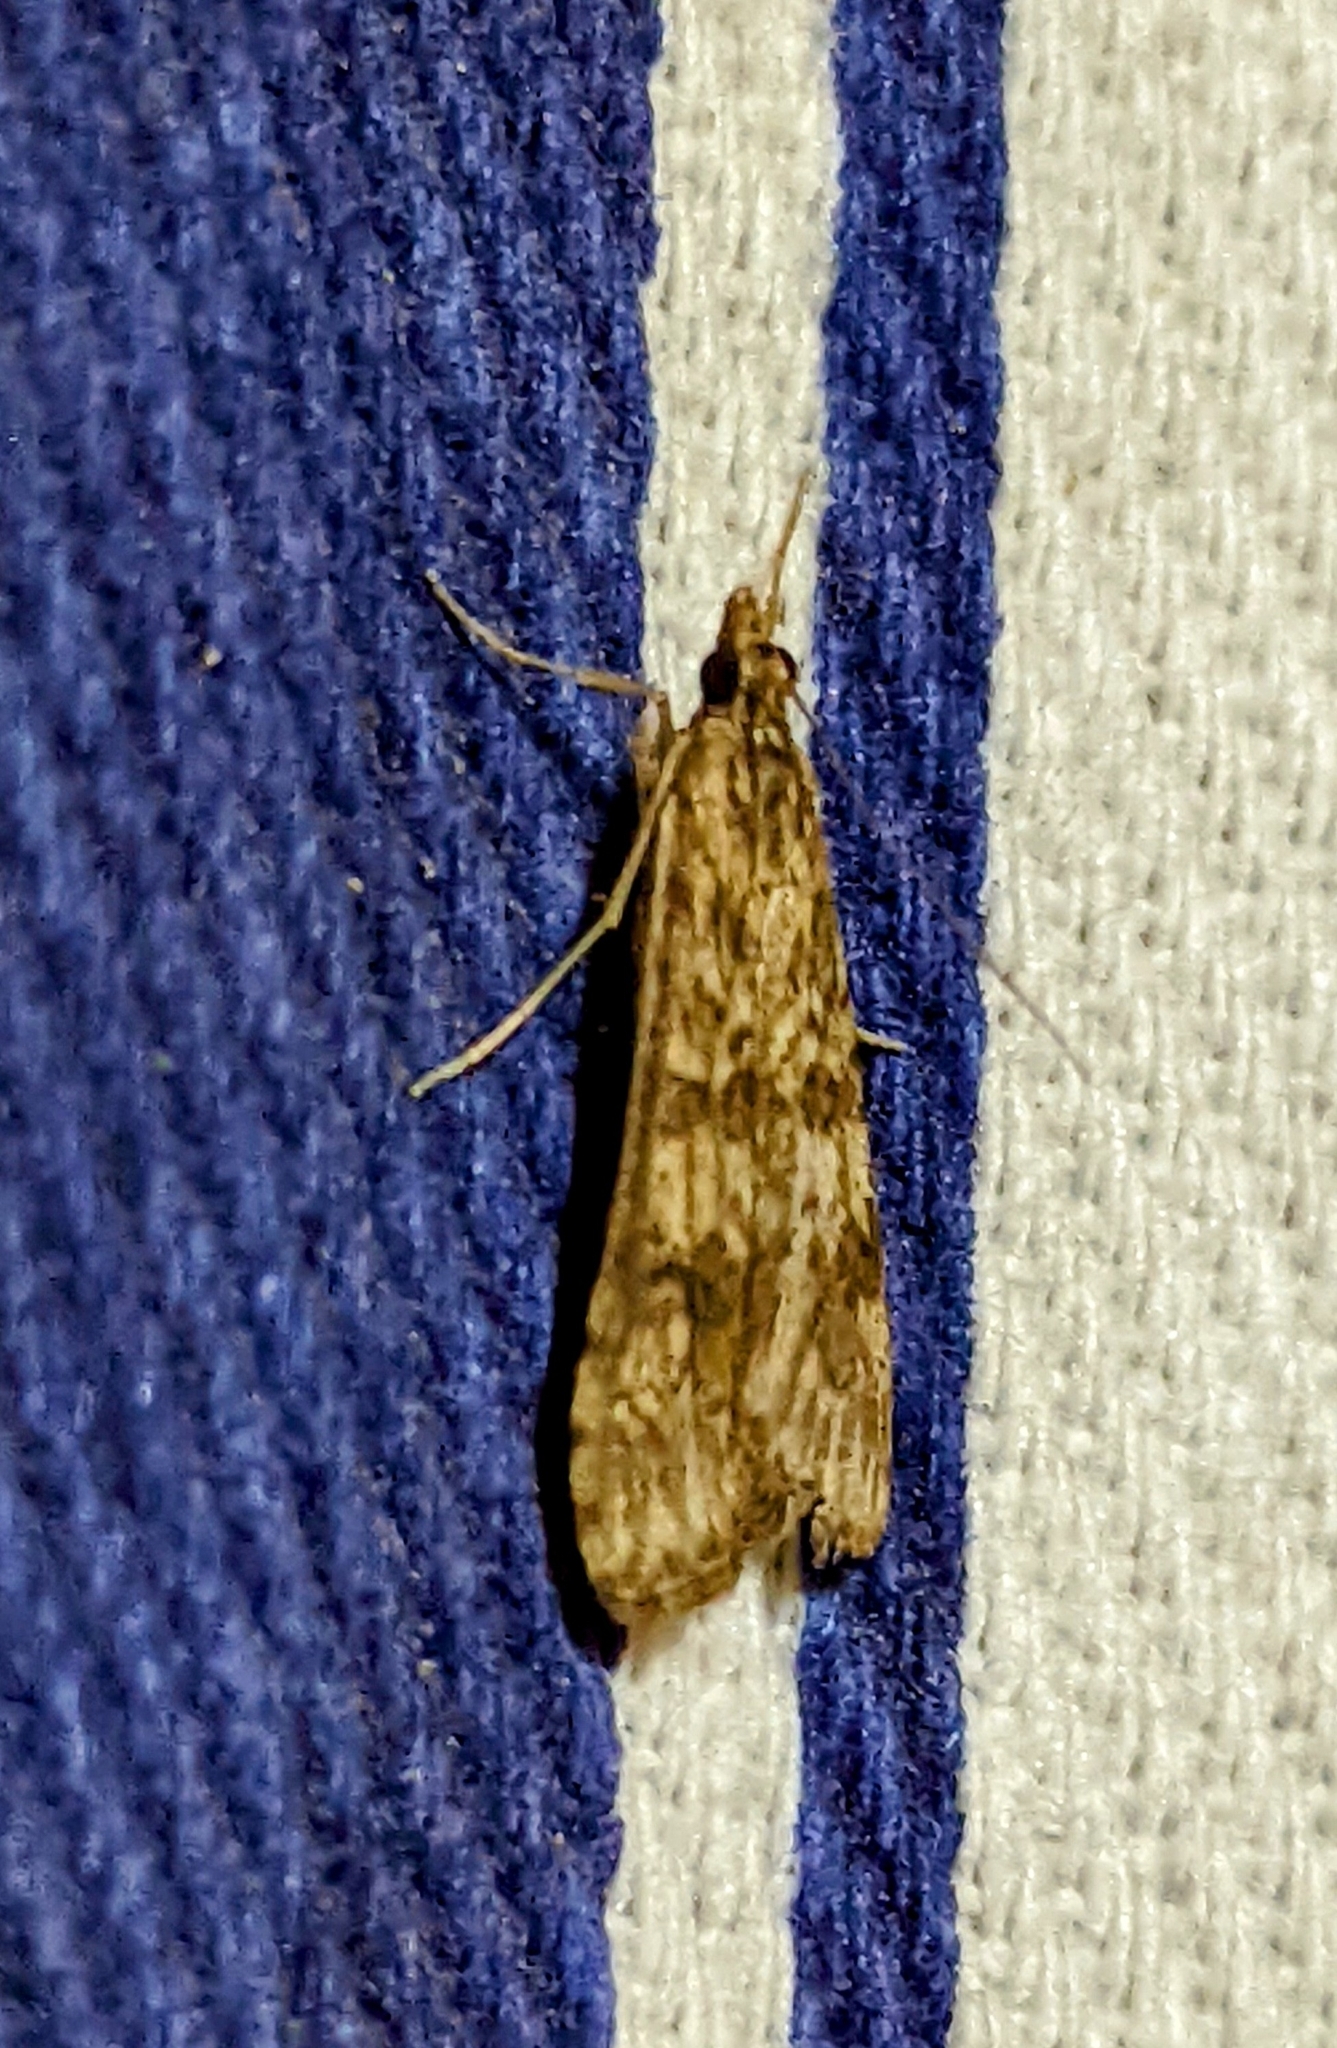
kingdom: Animalia
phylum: Arthropoda
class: Insecta
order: Lepidoptera
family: Crambidae
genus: Nomophila
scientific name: Nomophila noctuella
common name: Rush veneer
